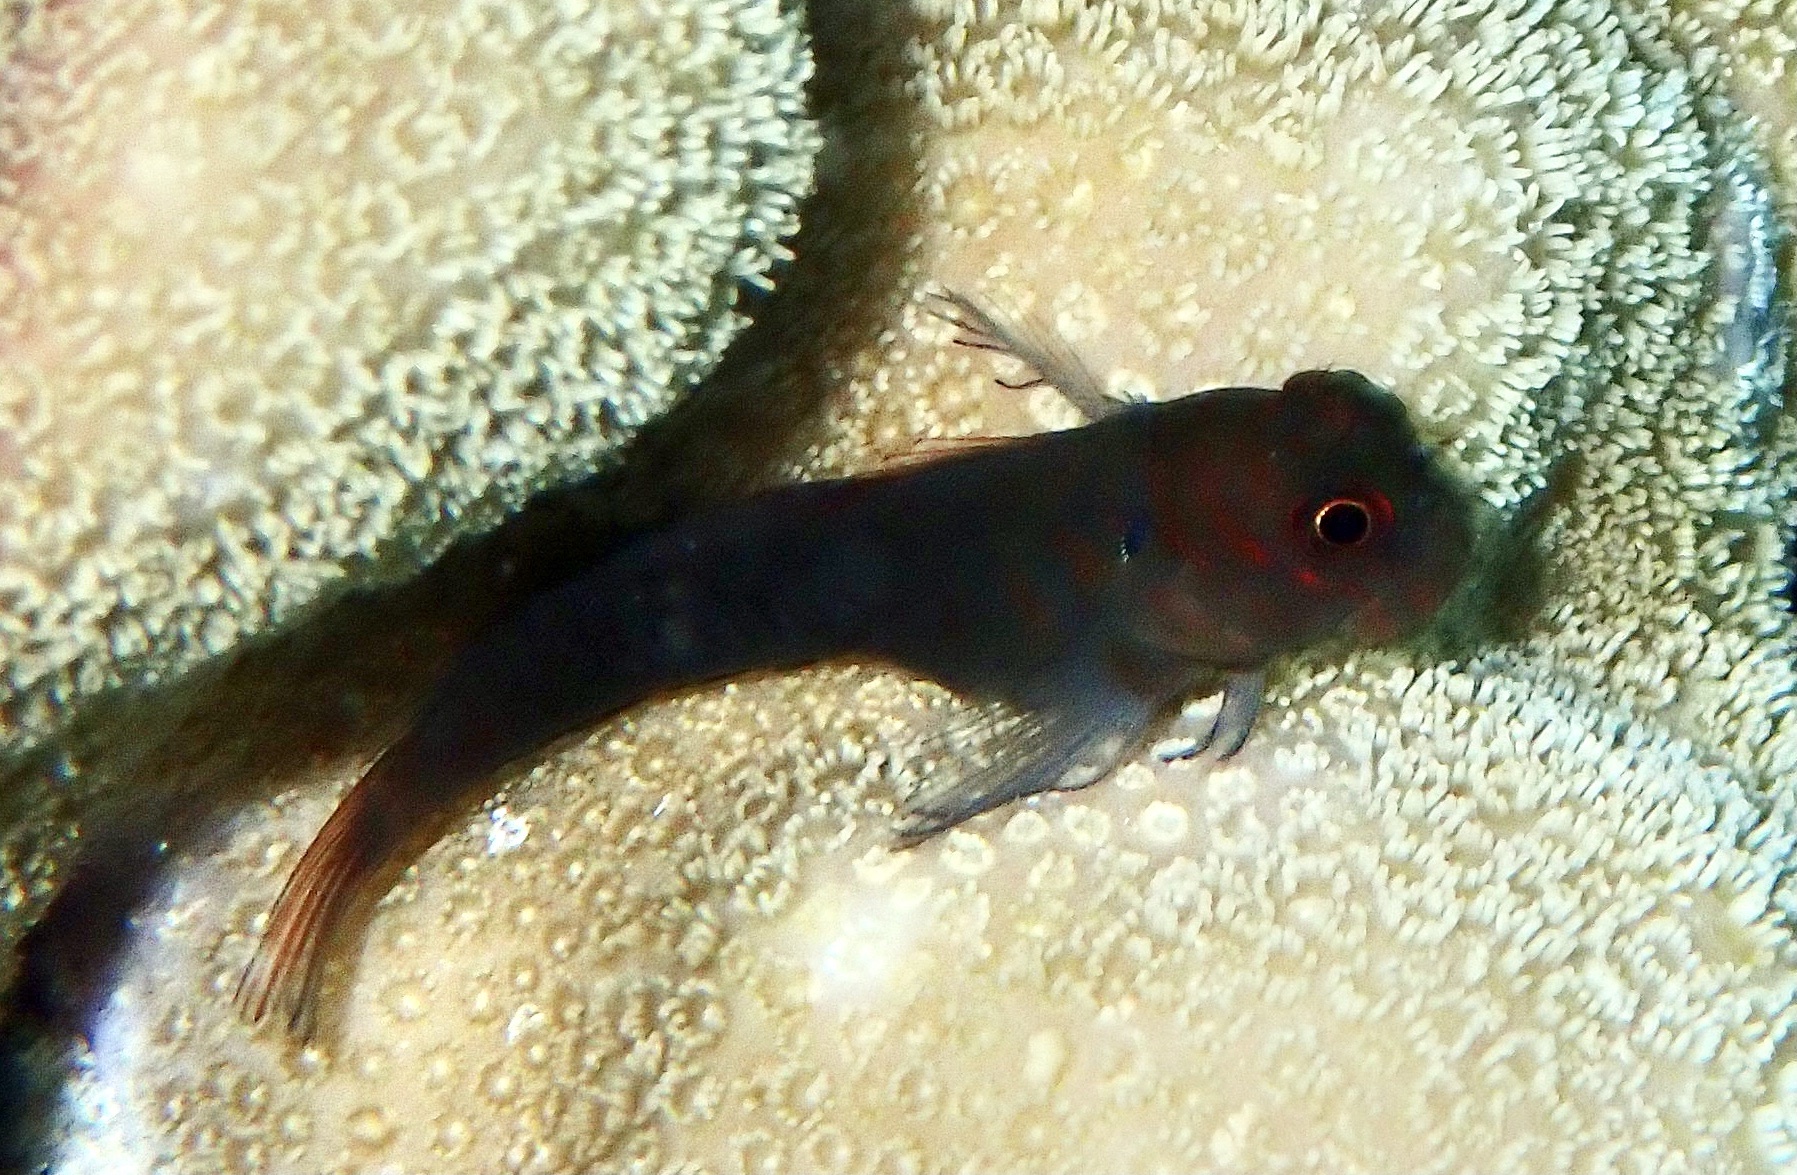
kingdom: Animalia
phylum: Chordata
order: Perciformes
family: Blenniidae
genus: Cirripectes
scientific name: Cirripectes castaneus
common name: Chestnut blenny
